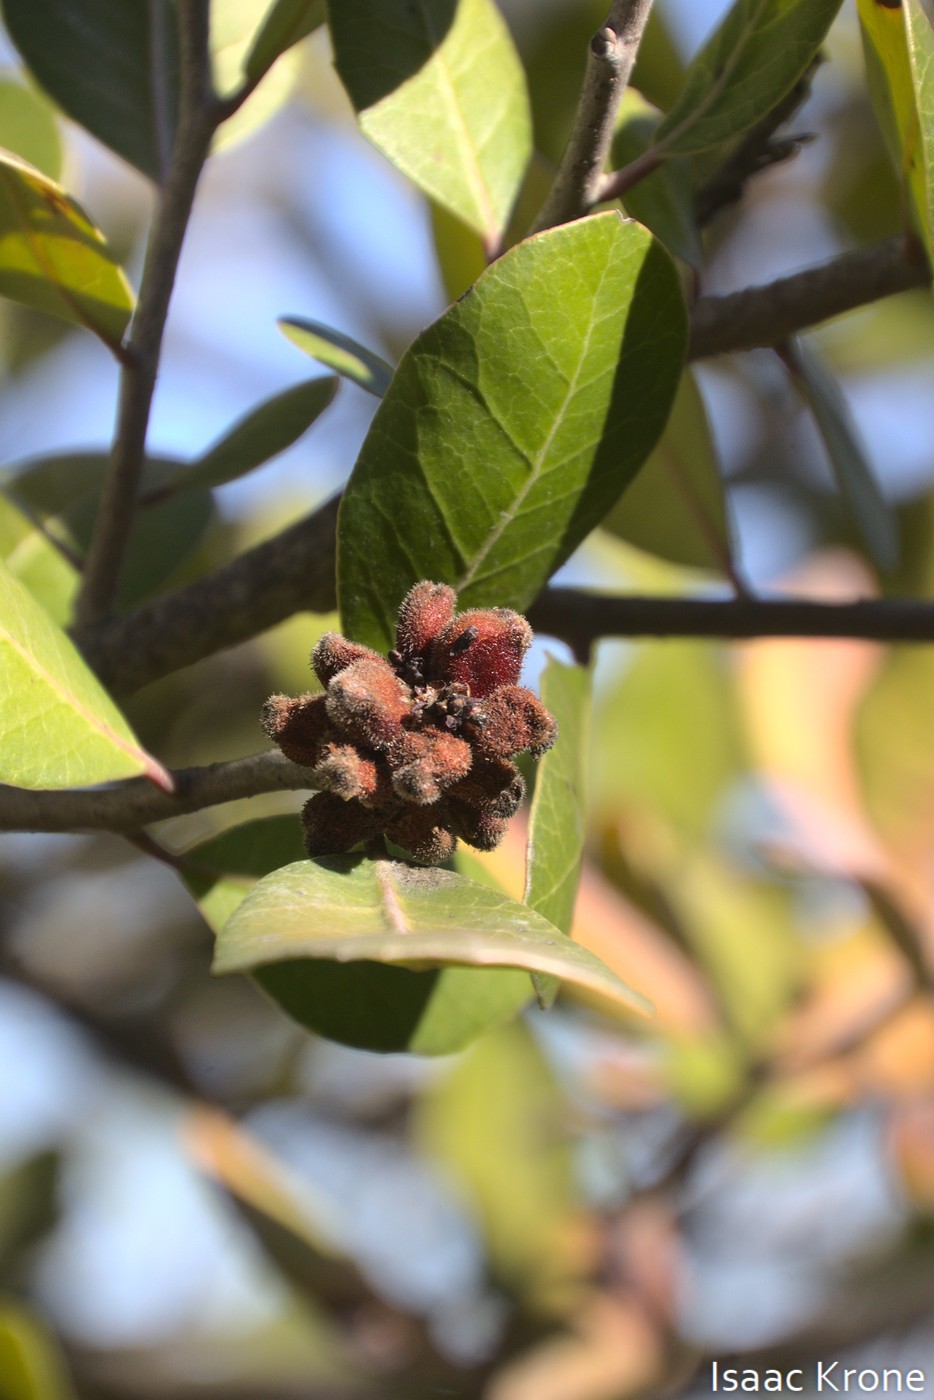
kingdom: Plantae
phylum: Tracheophyta
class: Magnoliopsida
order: Sapindales
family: Anacardiaceae
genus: Rhus
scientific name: Rhus integrifolia
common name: Lemonade sumac
